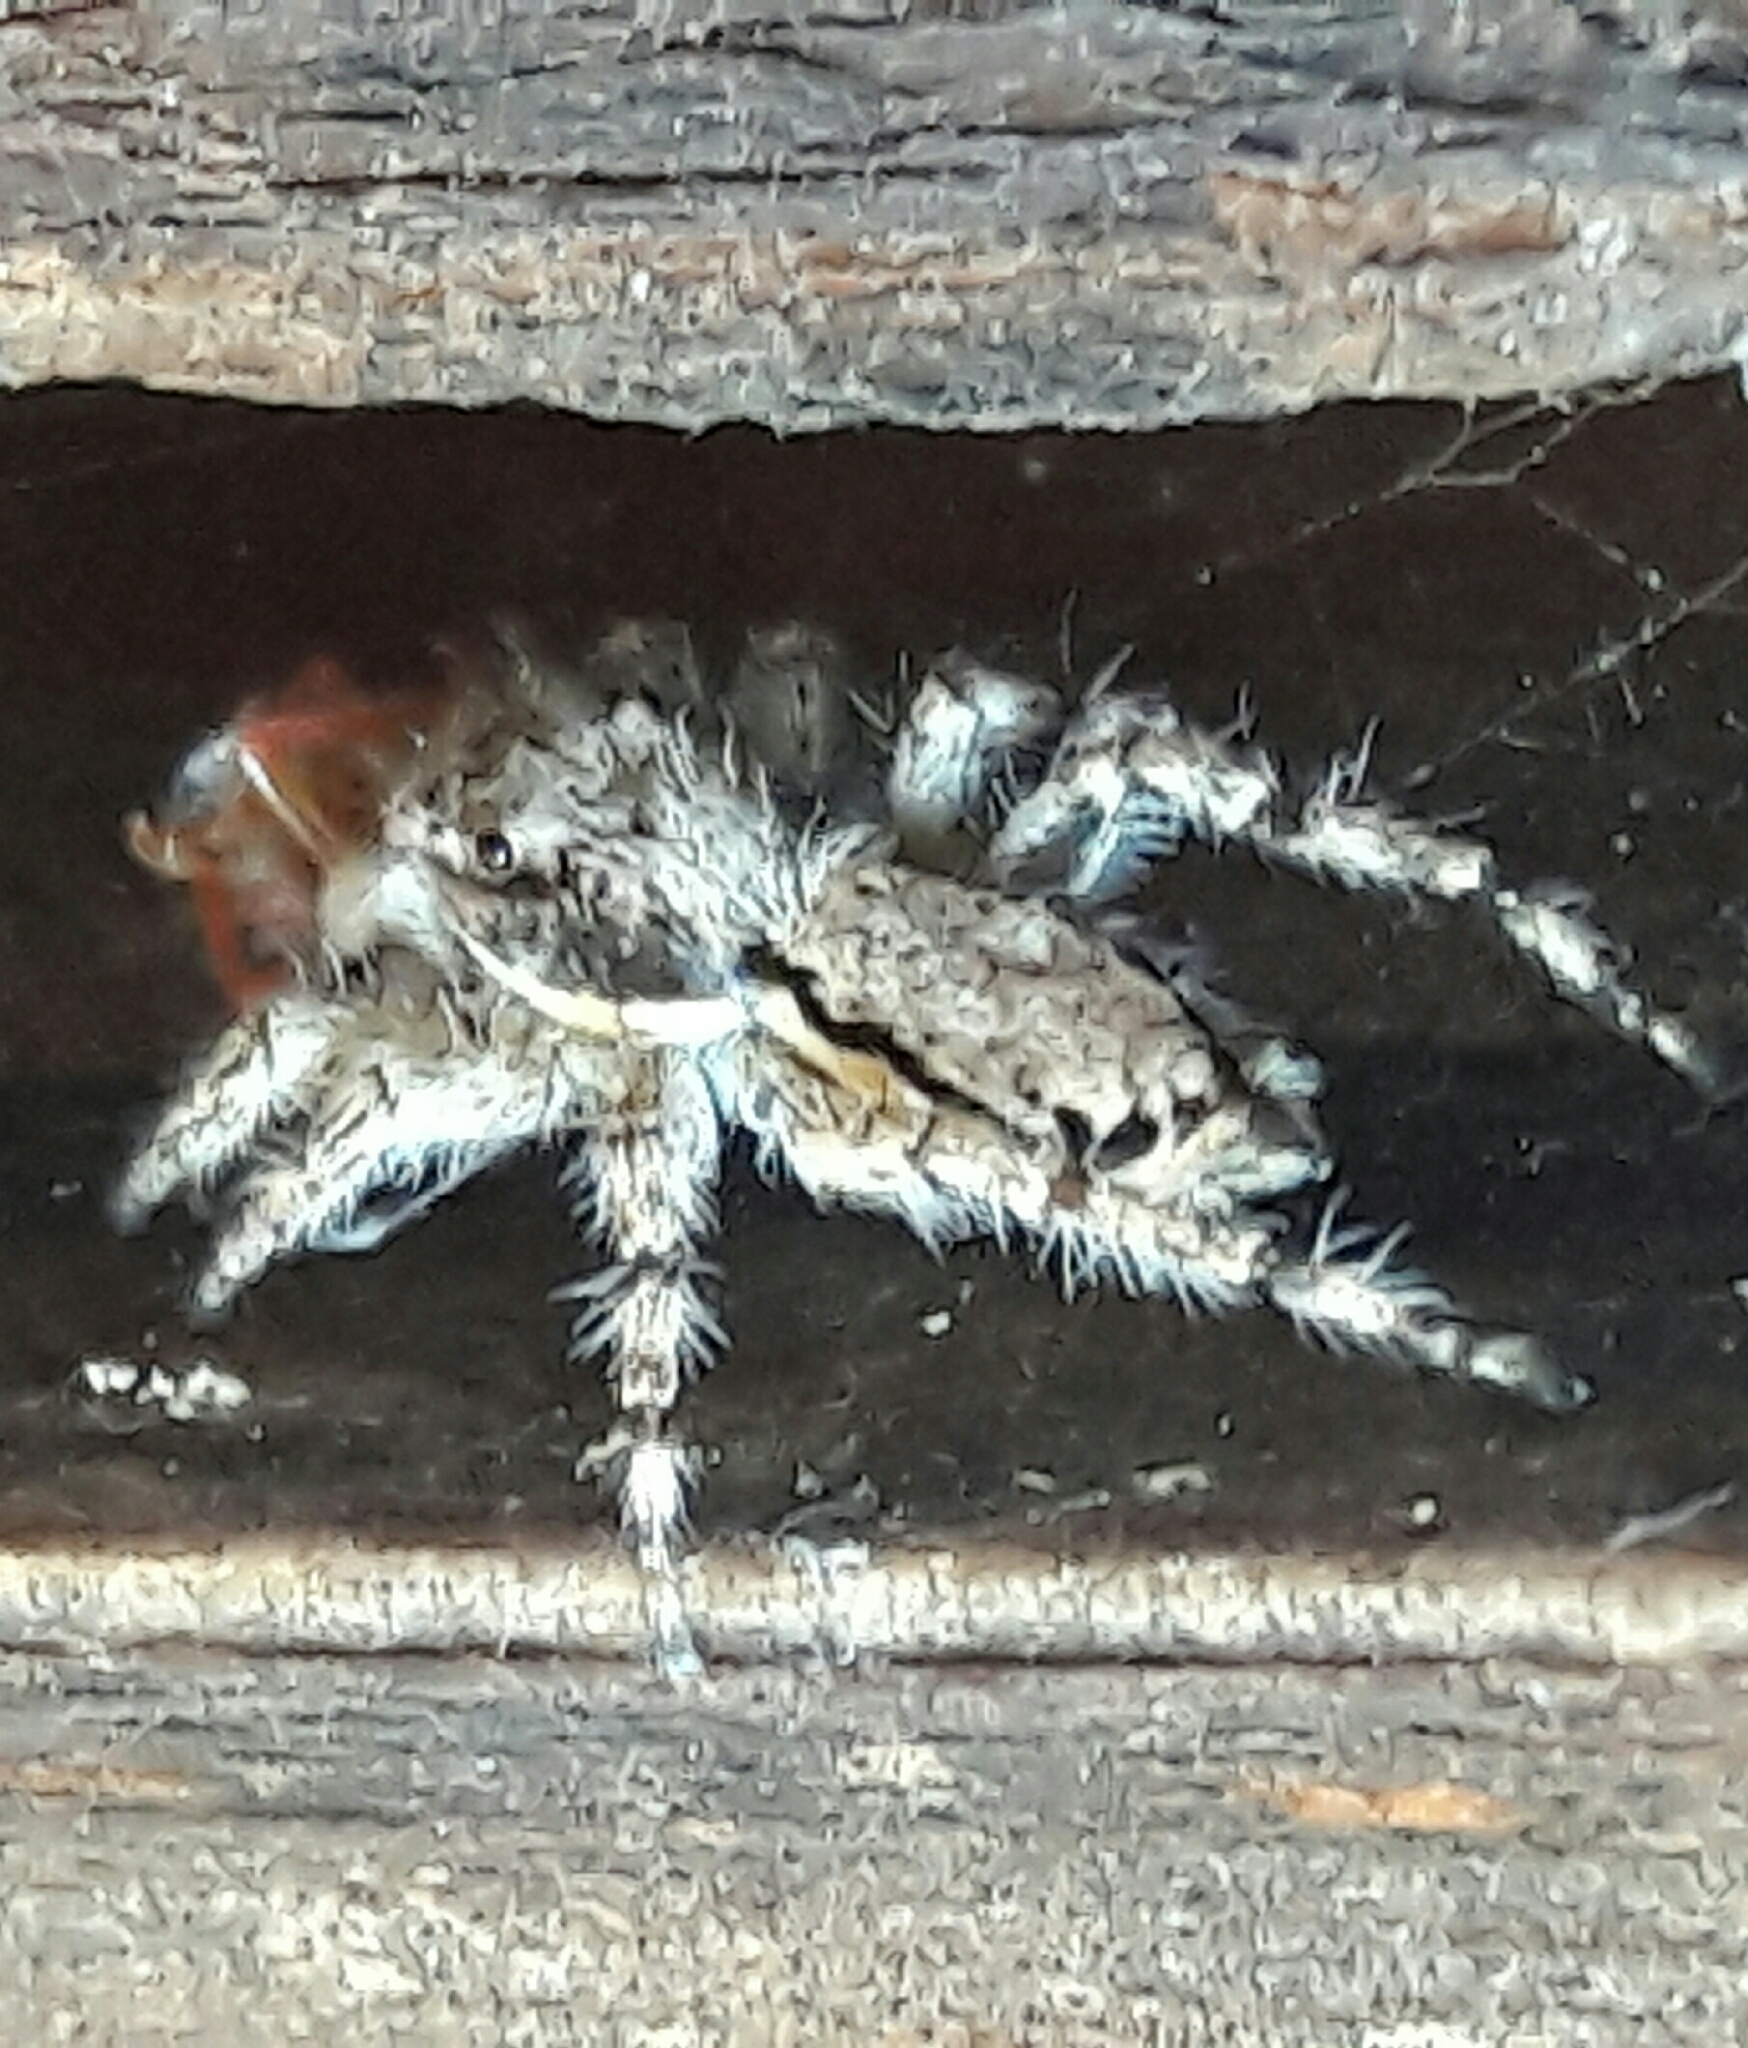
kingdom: Animalia
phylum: Arthropoda
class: Arachnida
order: Araneae
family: Salticidae
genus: Menemerus
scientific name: Menemerus bivittatus
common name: Gray wall jumper
